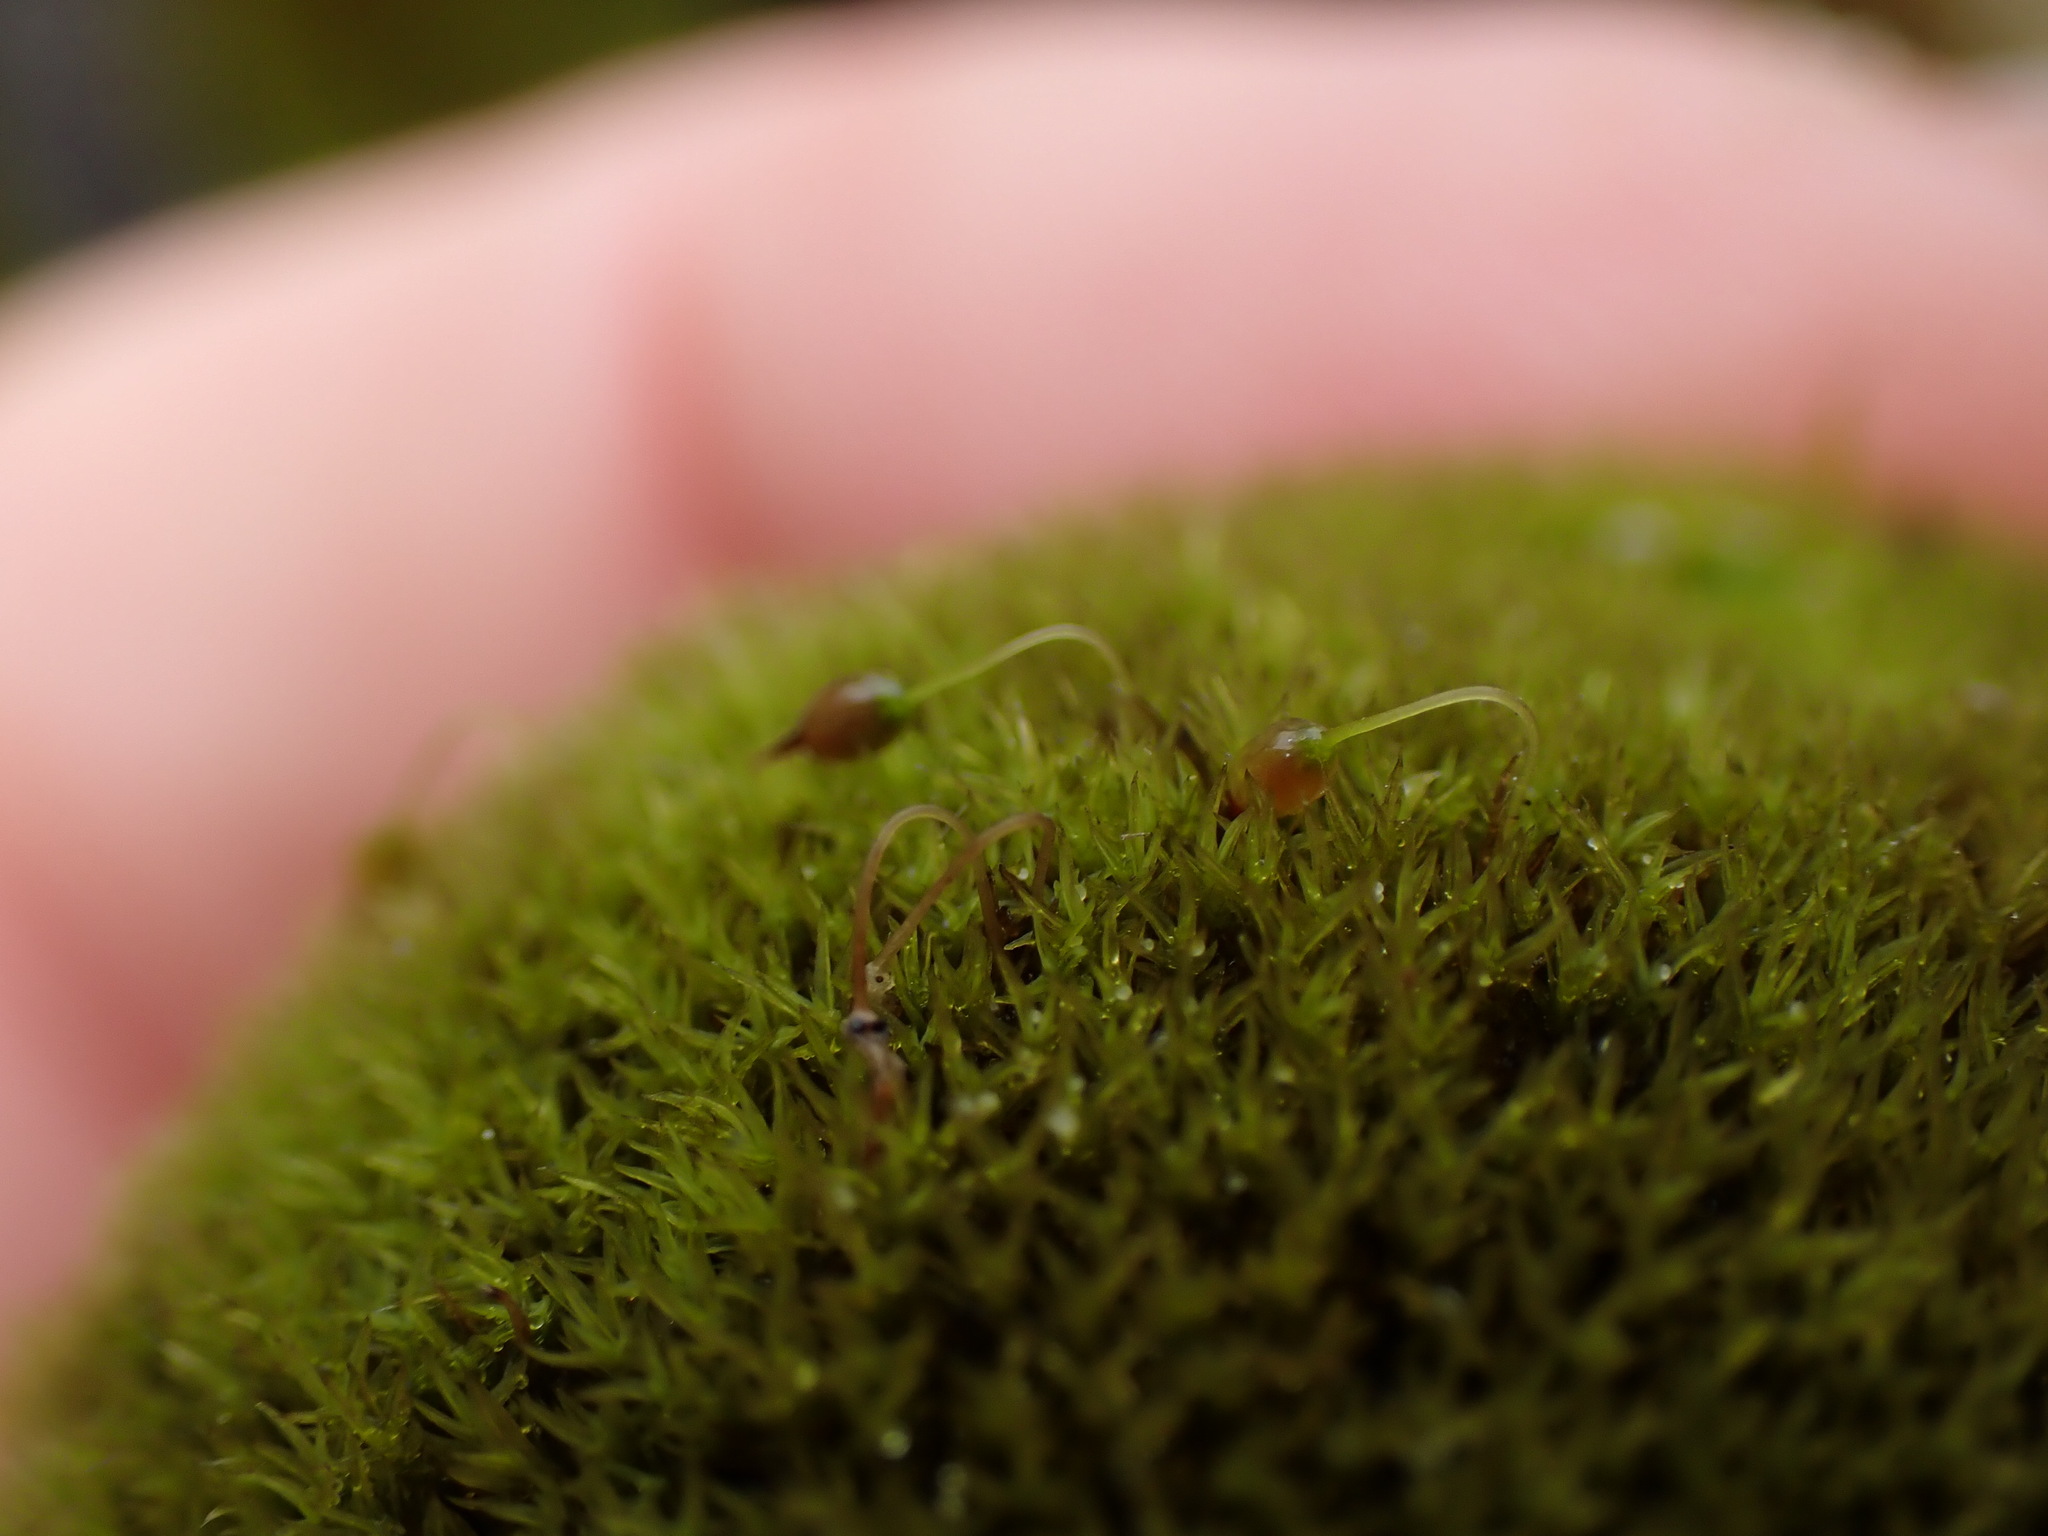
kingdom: Plantae
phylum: Bryophyta
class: Bryopsida
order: Grimmiales
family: Grimmiaceae
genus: Grimmia
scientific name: Grimmia torquata
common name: Twisted grimmia
